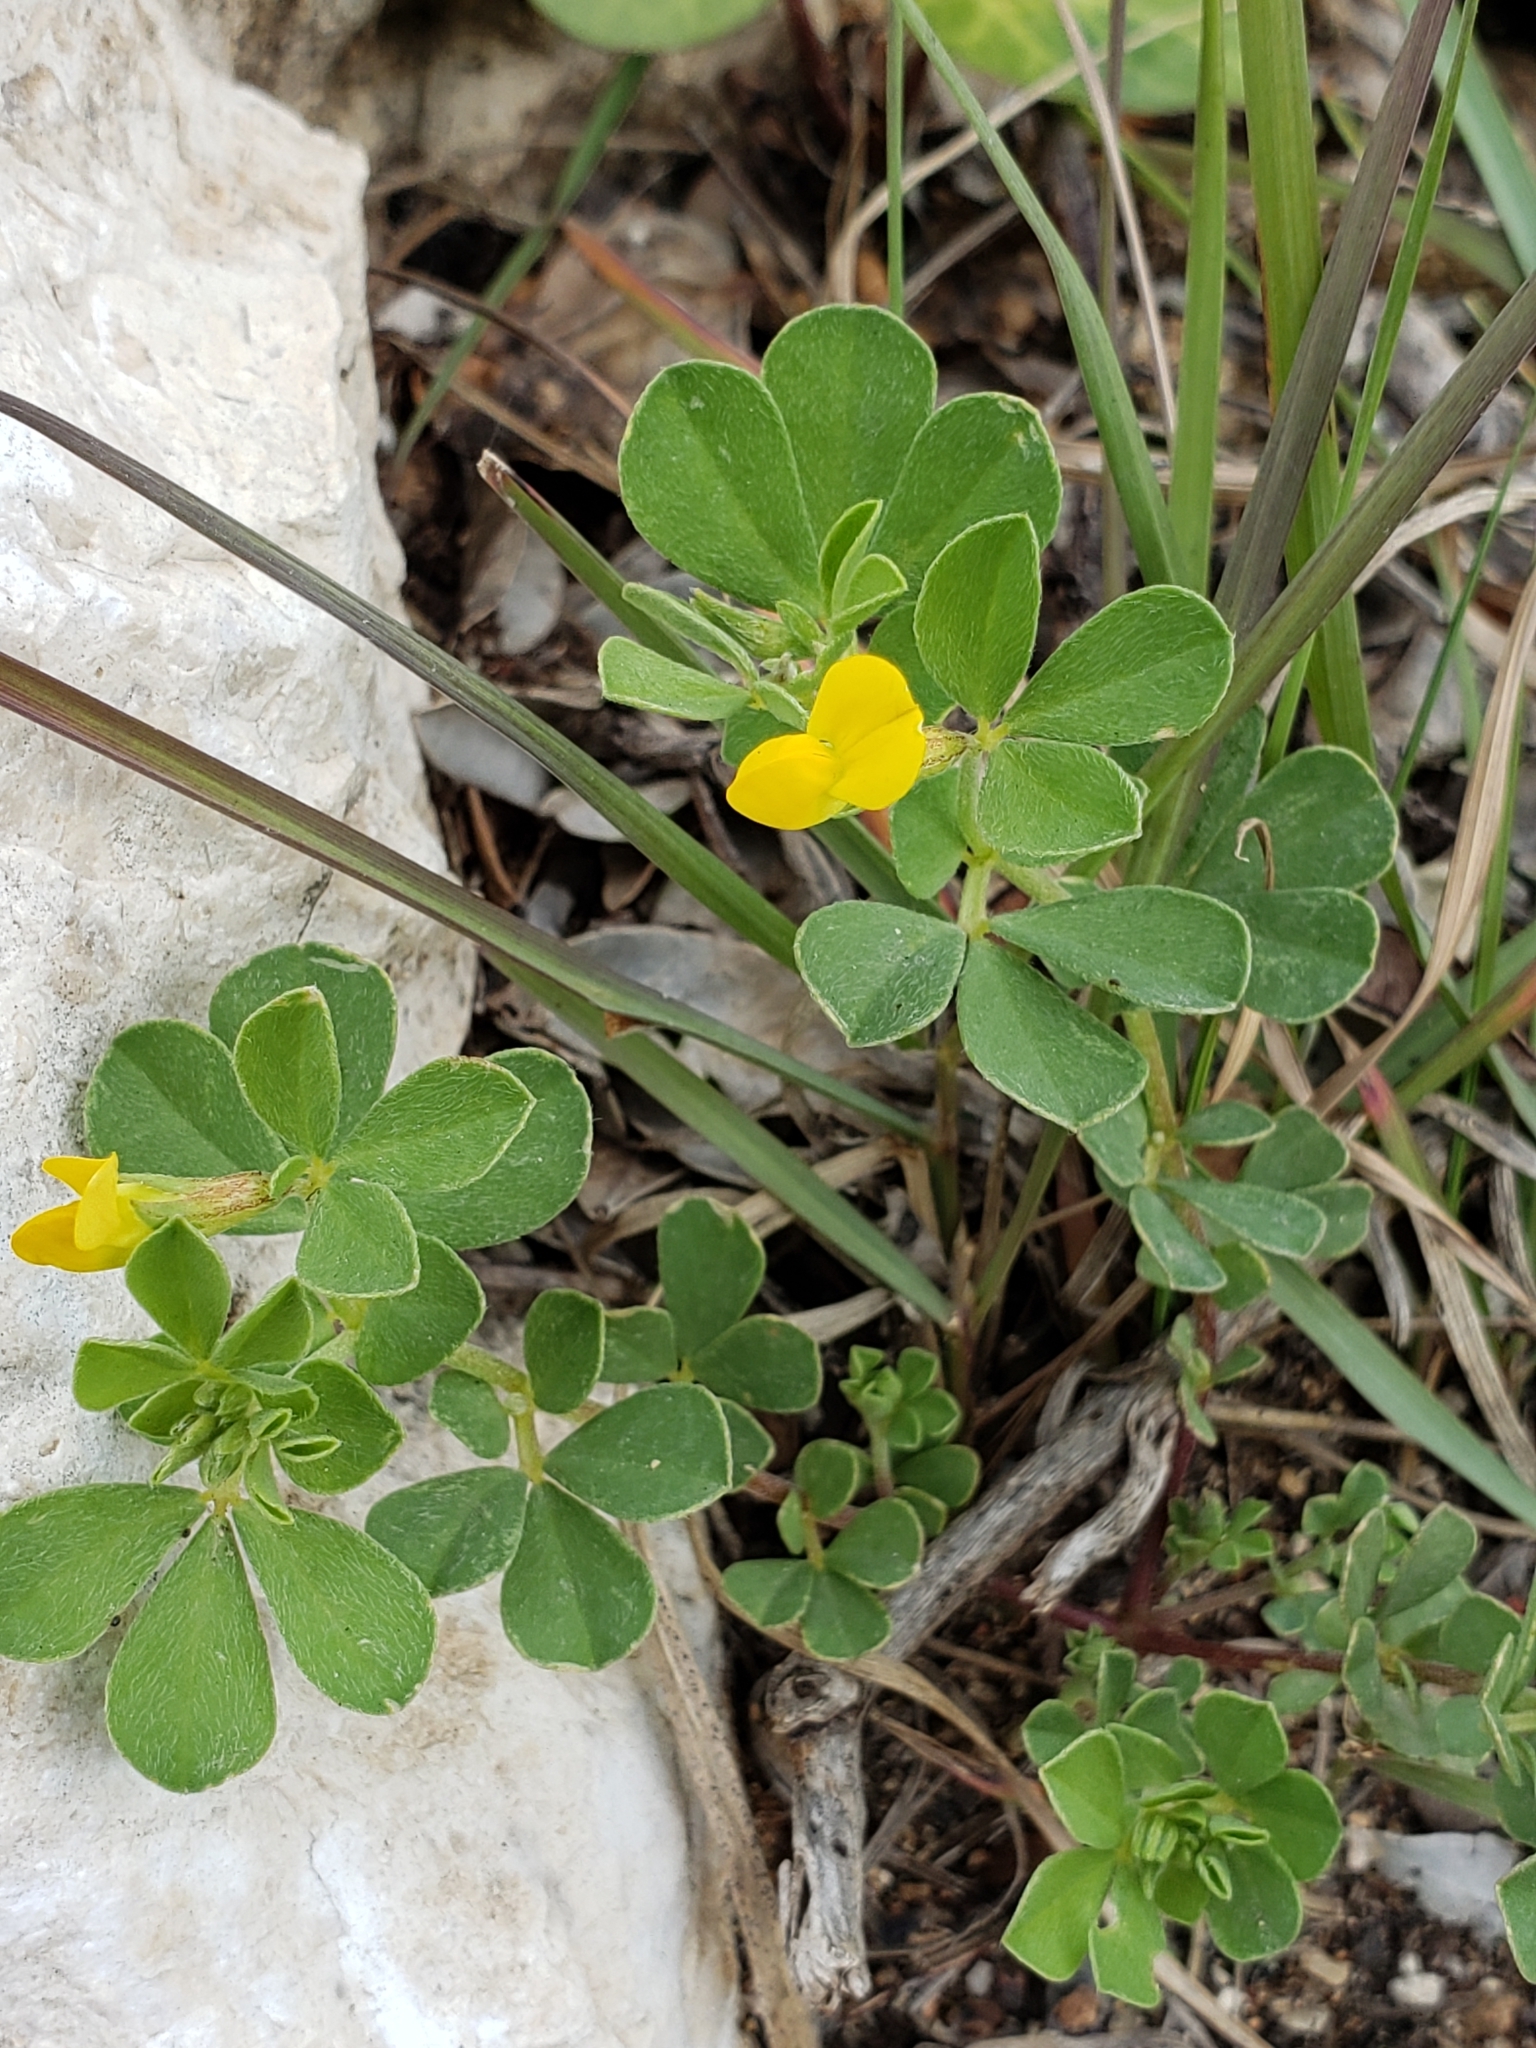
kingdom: Plantae
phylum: Tracheophyta
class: Magnoliopsida
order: Fabales
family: Fabaceae
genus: Lotus
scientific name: Lotus peregrinus
